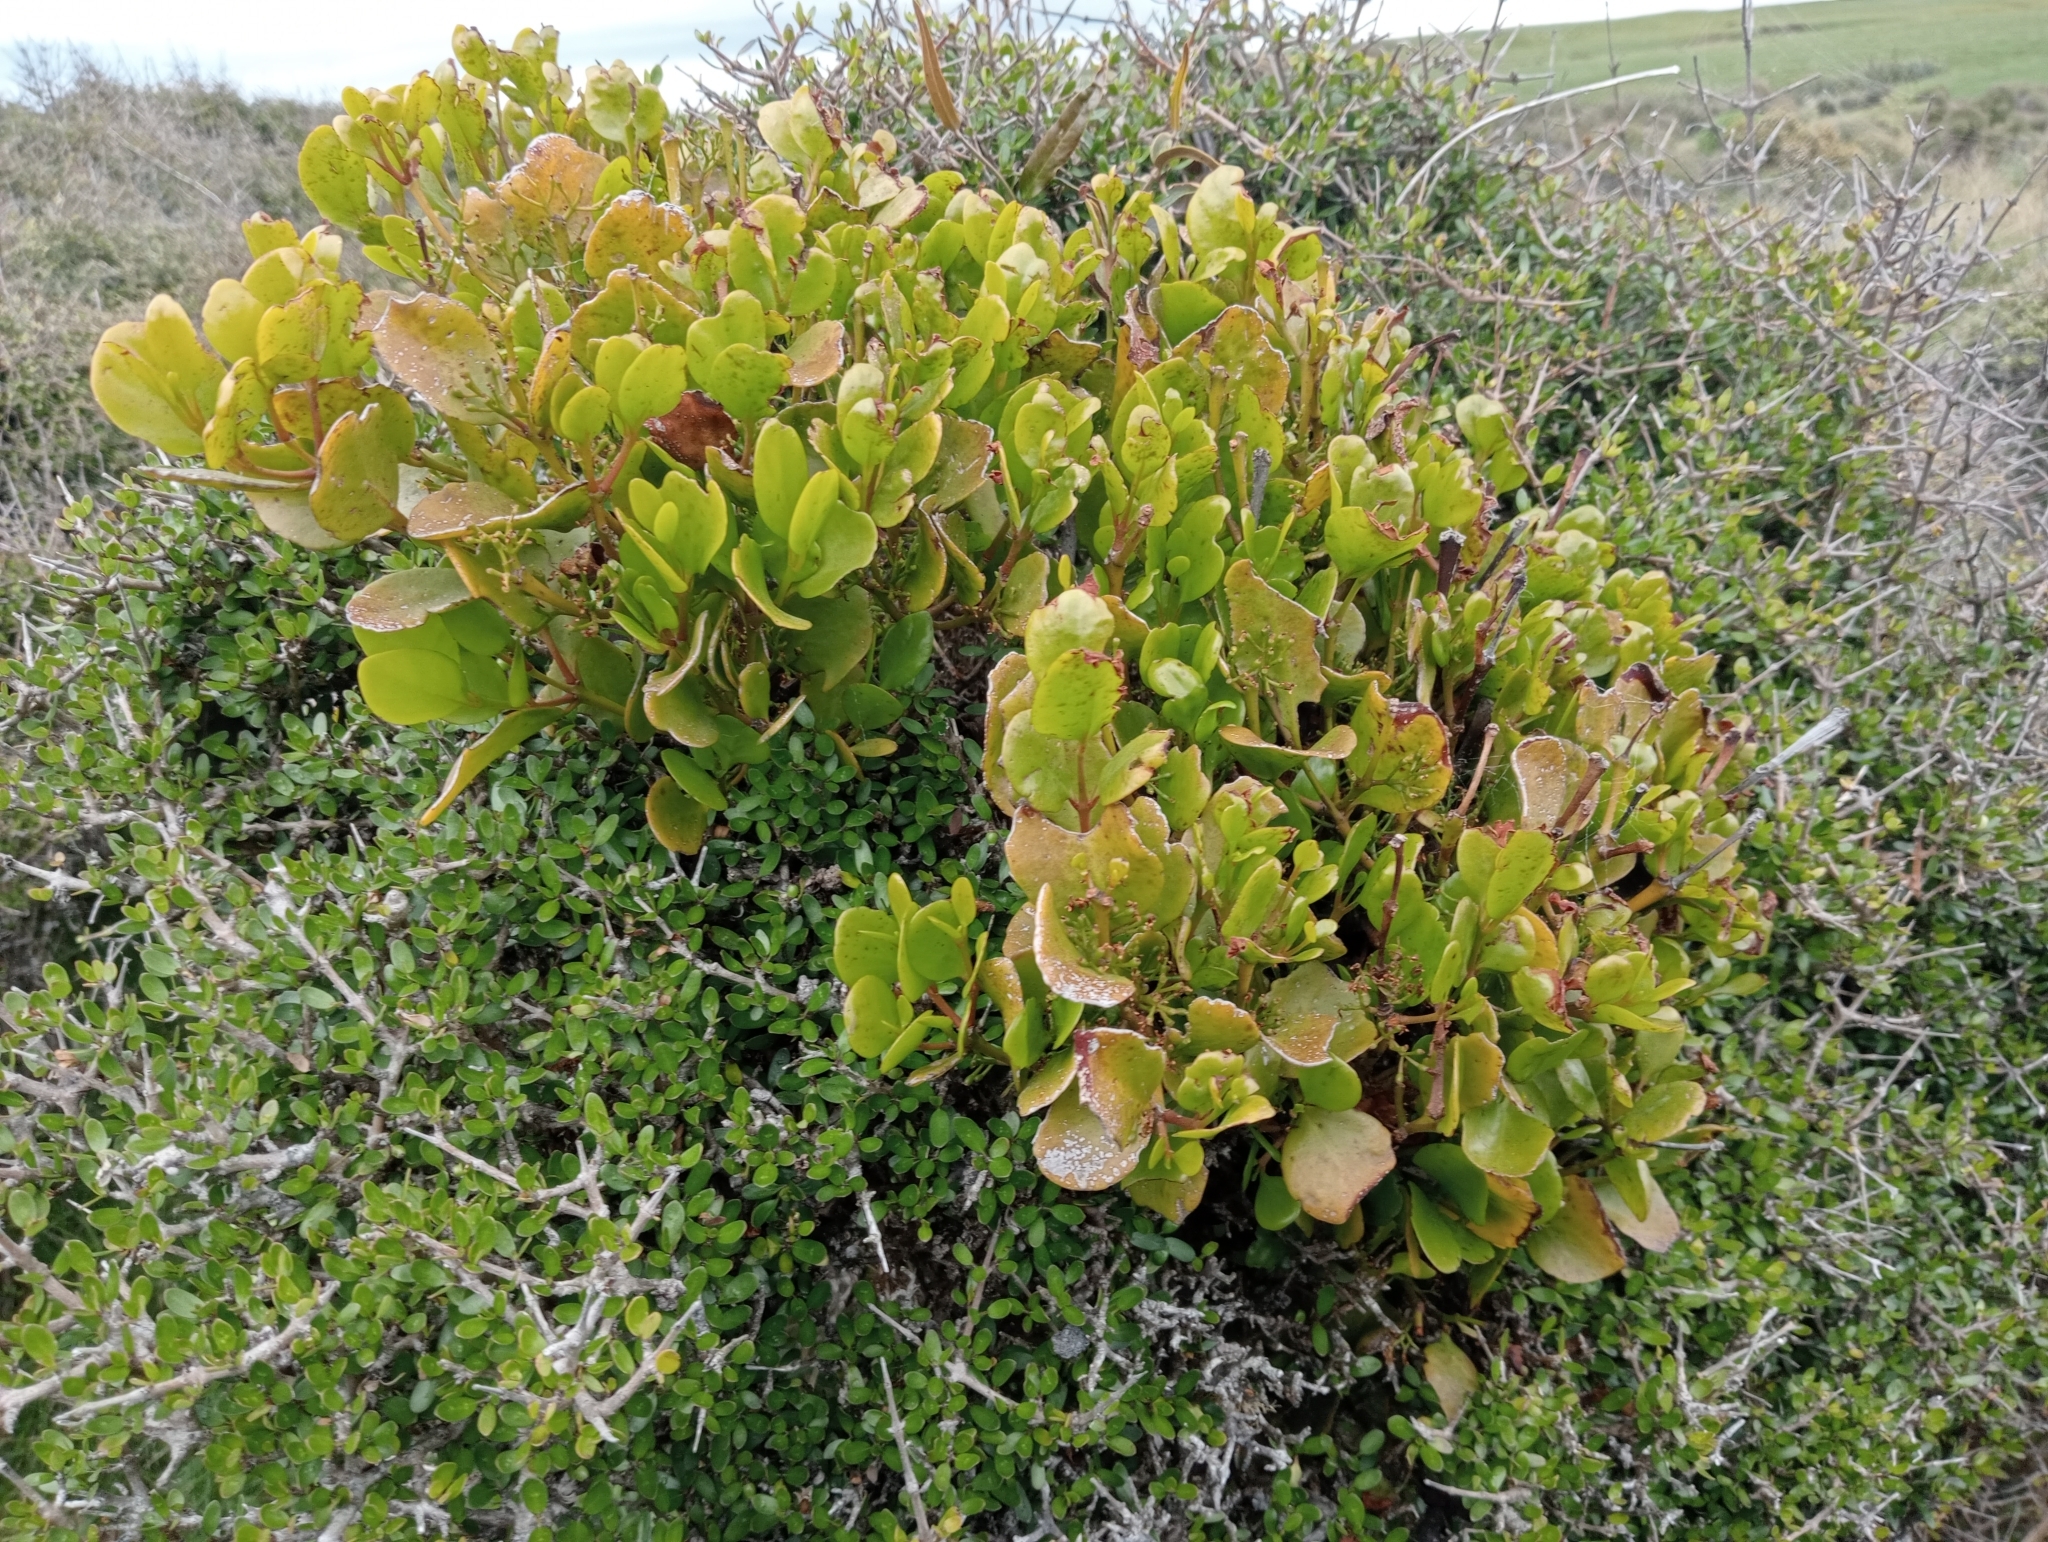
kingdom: Plantae
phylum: Tracheophyta
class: Magnoliopsida
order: Santalales
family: Loranthaceae
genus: Ileostylus
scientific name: Ileostylus micranthus
